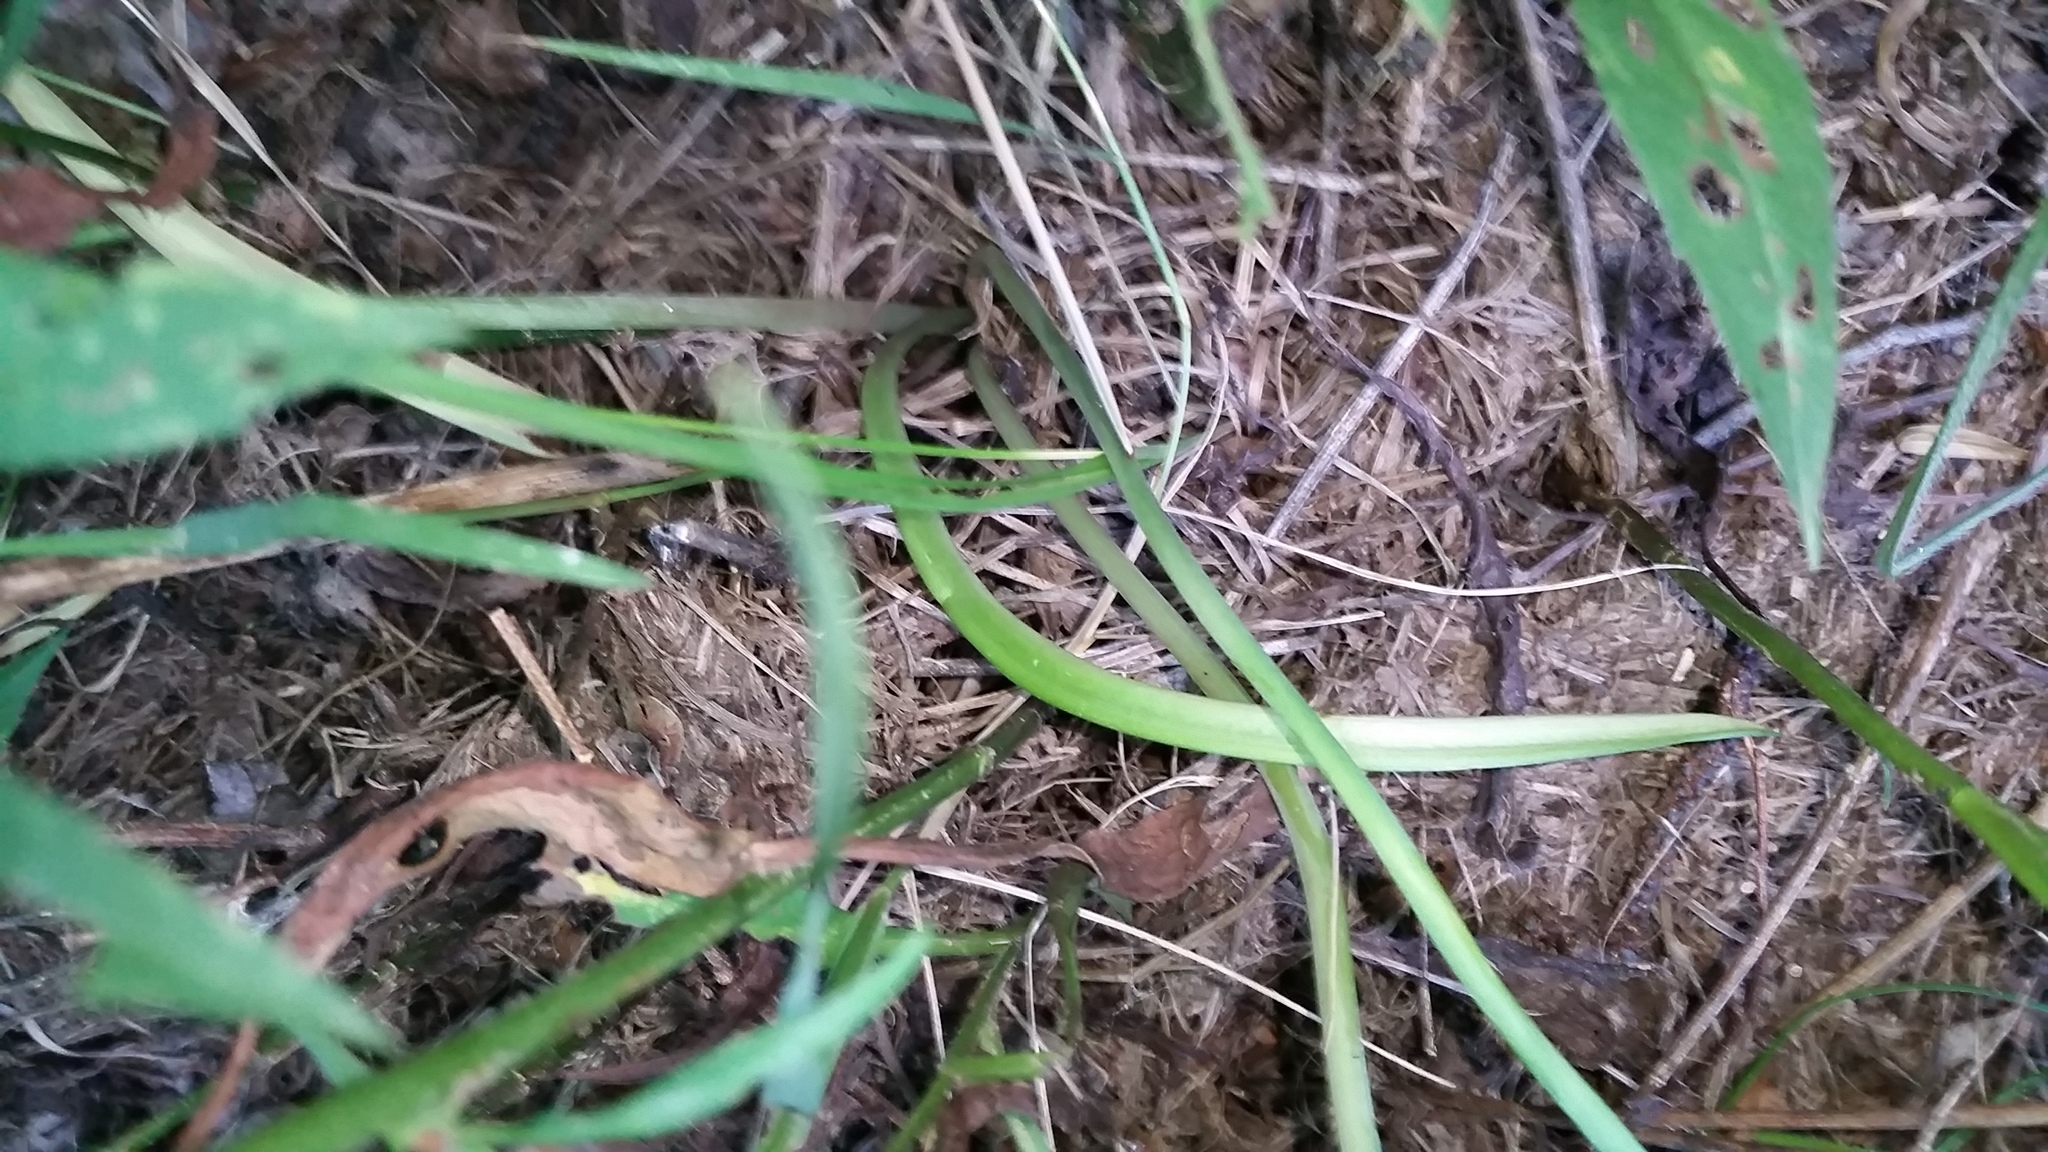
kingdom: Plantae
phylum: Tracheophyta
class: Liliopsida
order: Asparagales
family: Amaryllidaceae
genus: Nothoscordum
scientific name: Nothoscordum gracile
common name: Slender false garlic
